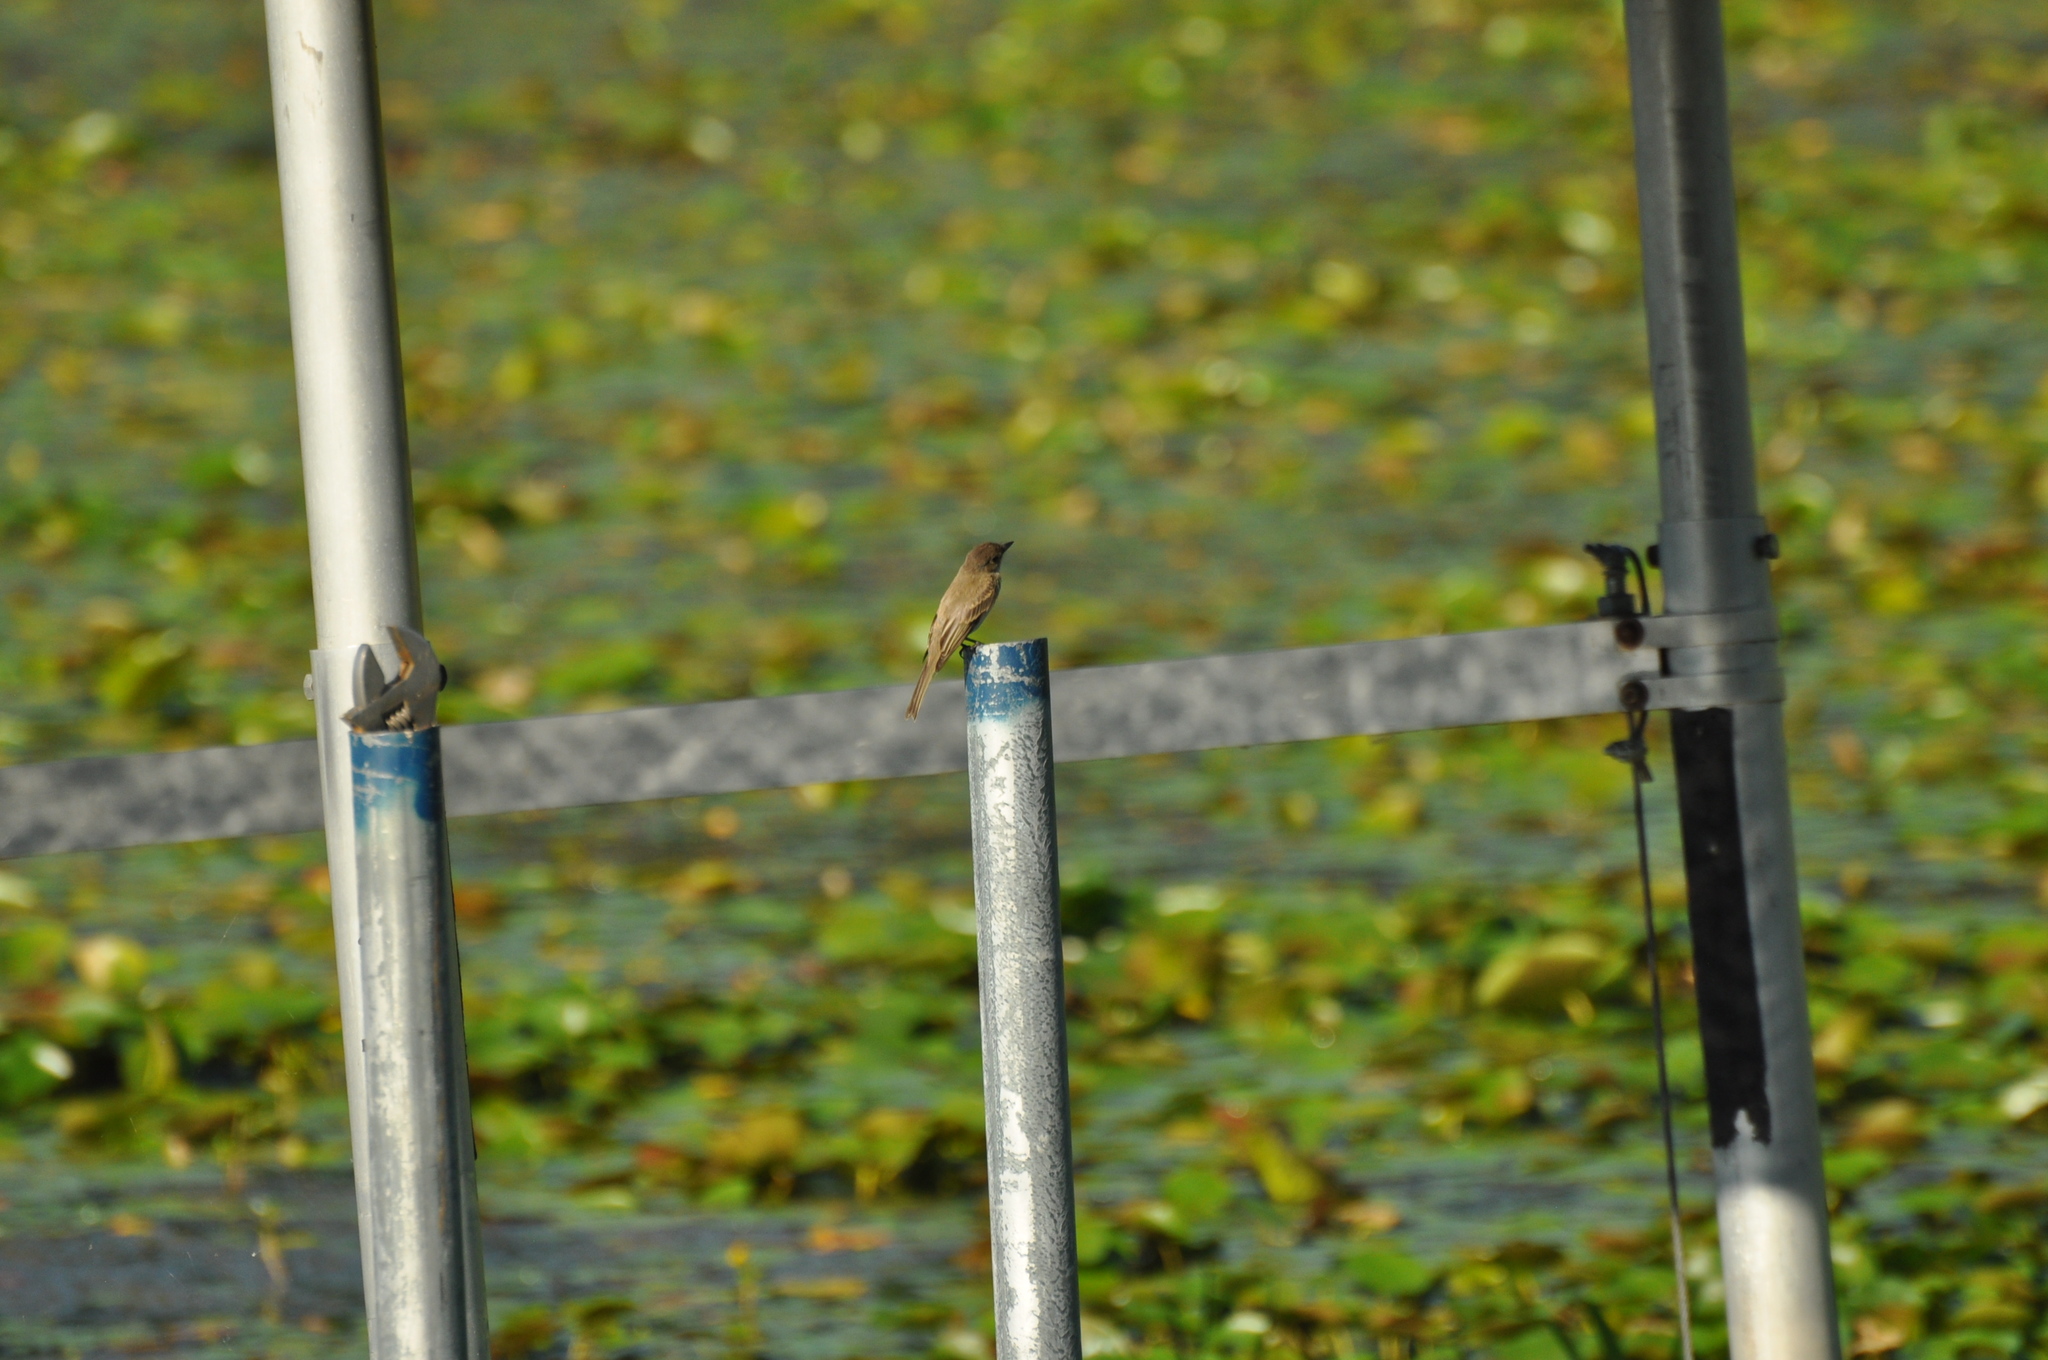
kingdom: Animalia
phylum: Chordata
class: Aves
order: Passeriformes
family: Tyrannidae
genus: Sayornis
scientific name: Sayornis phoebe
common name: Eastern phoebe
